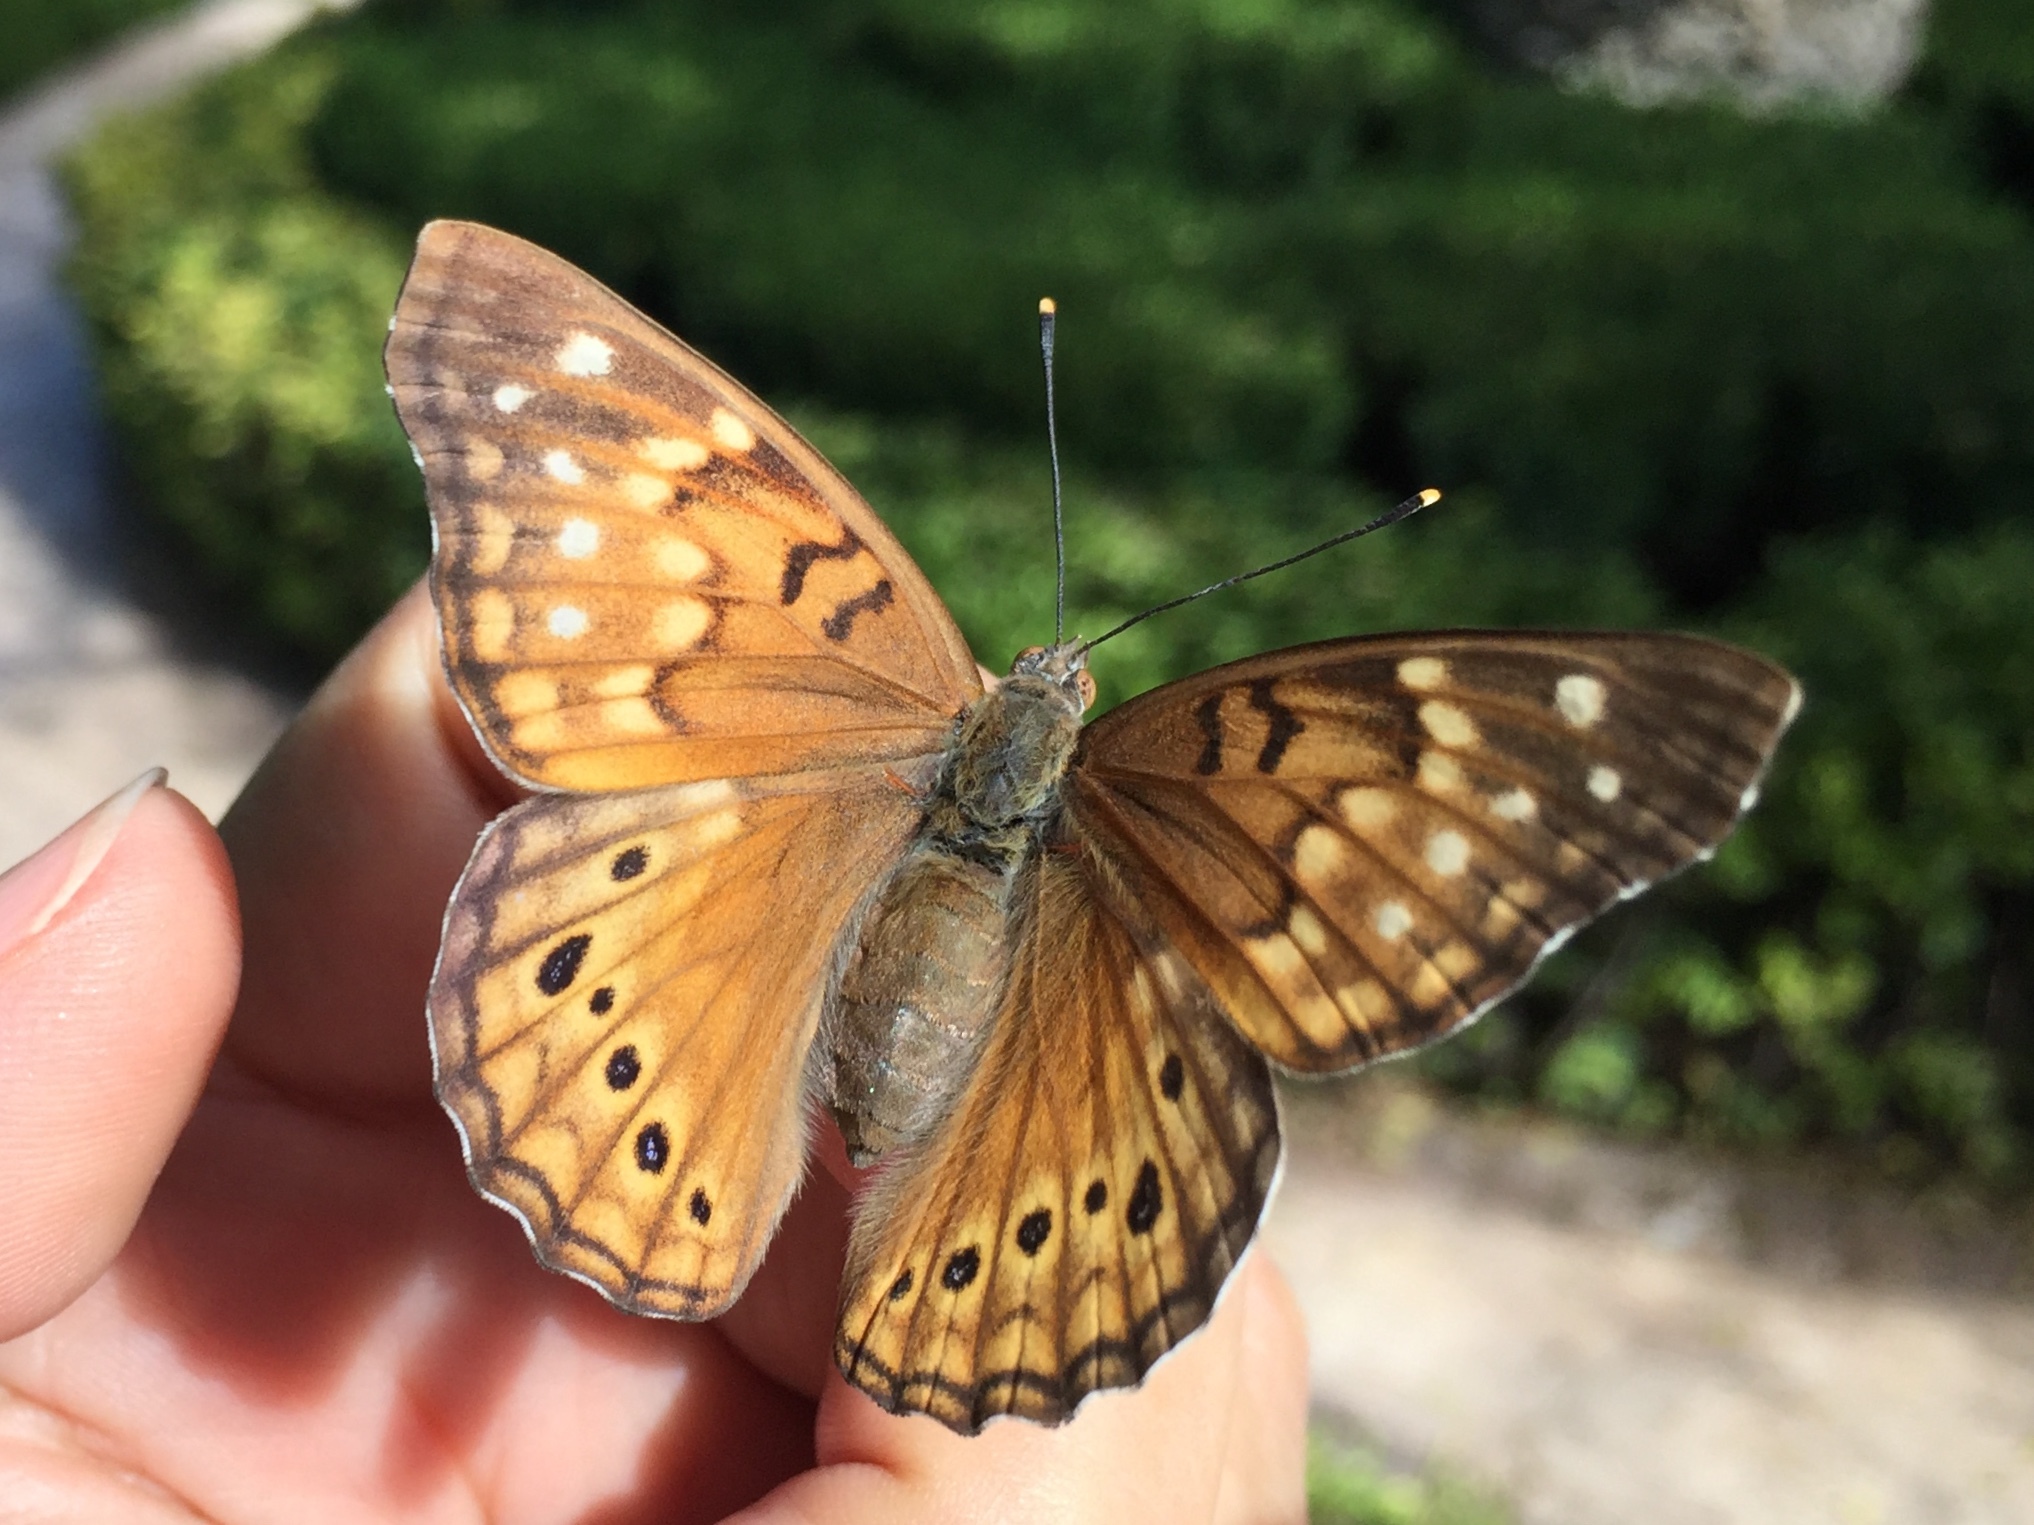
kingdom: Animalia
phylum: Arthropoda
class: Insecta
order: Lepidoptera
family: Nymphalidae
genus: Asterocampa
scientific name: Asterocampa clyton
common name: Tawny emperor
